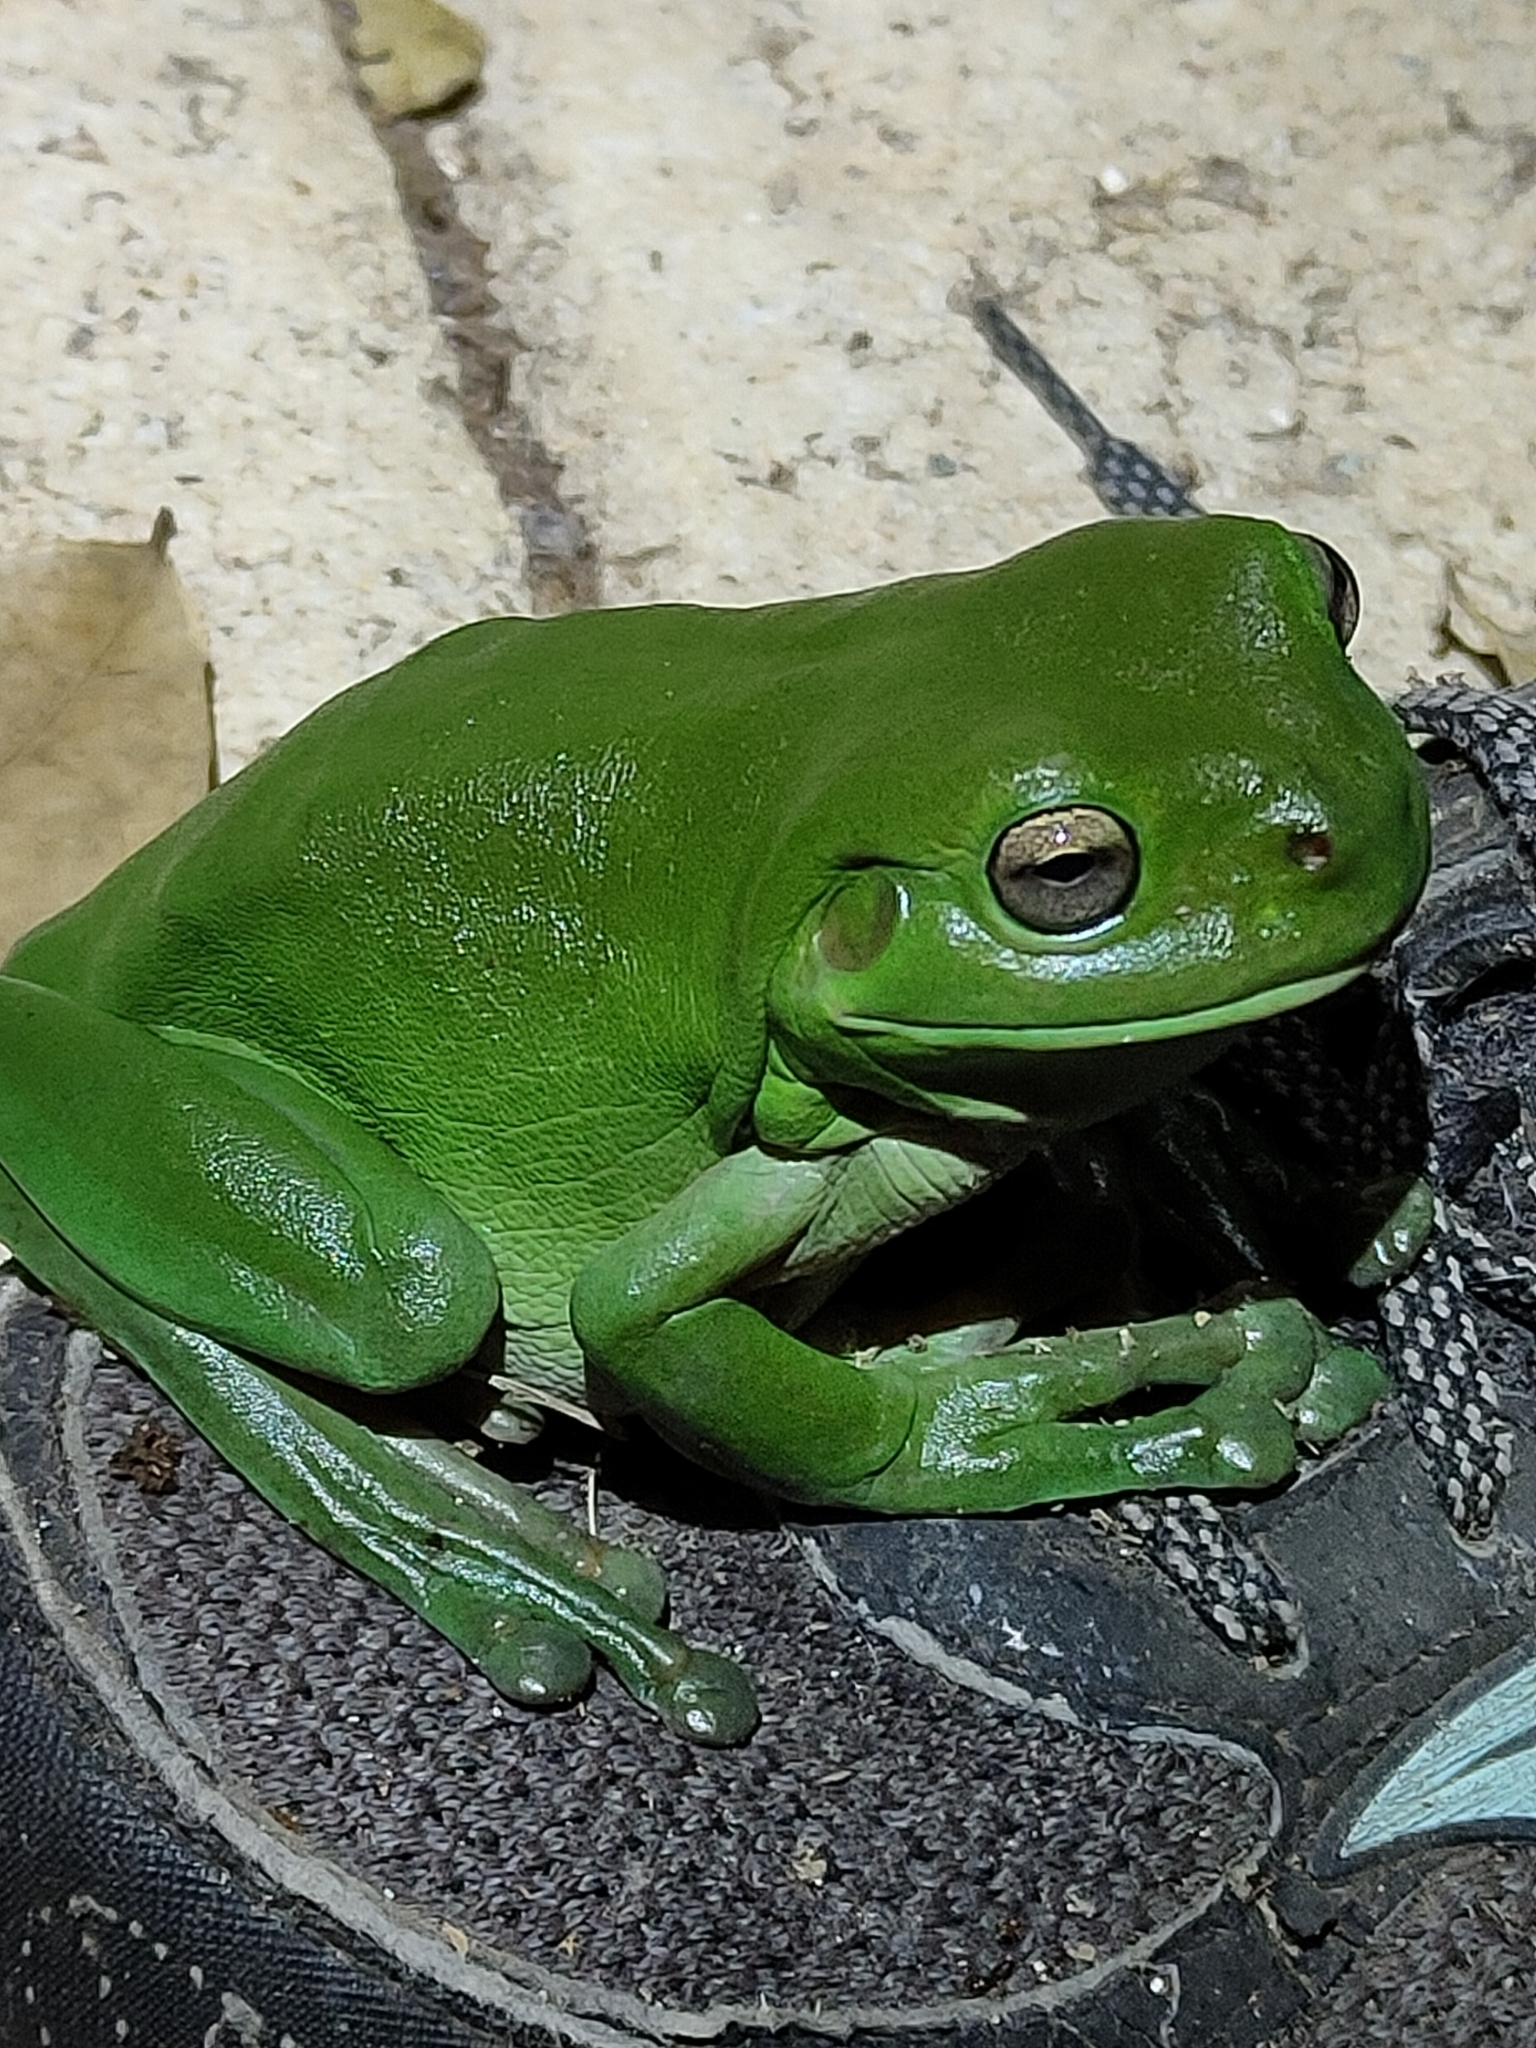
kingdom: Animalia
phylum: Chordata
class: Amphibia
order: Anura
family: Pelodryadidae
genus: Ranoidea
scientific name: Ranoidea caerulea
